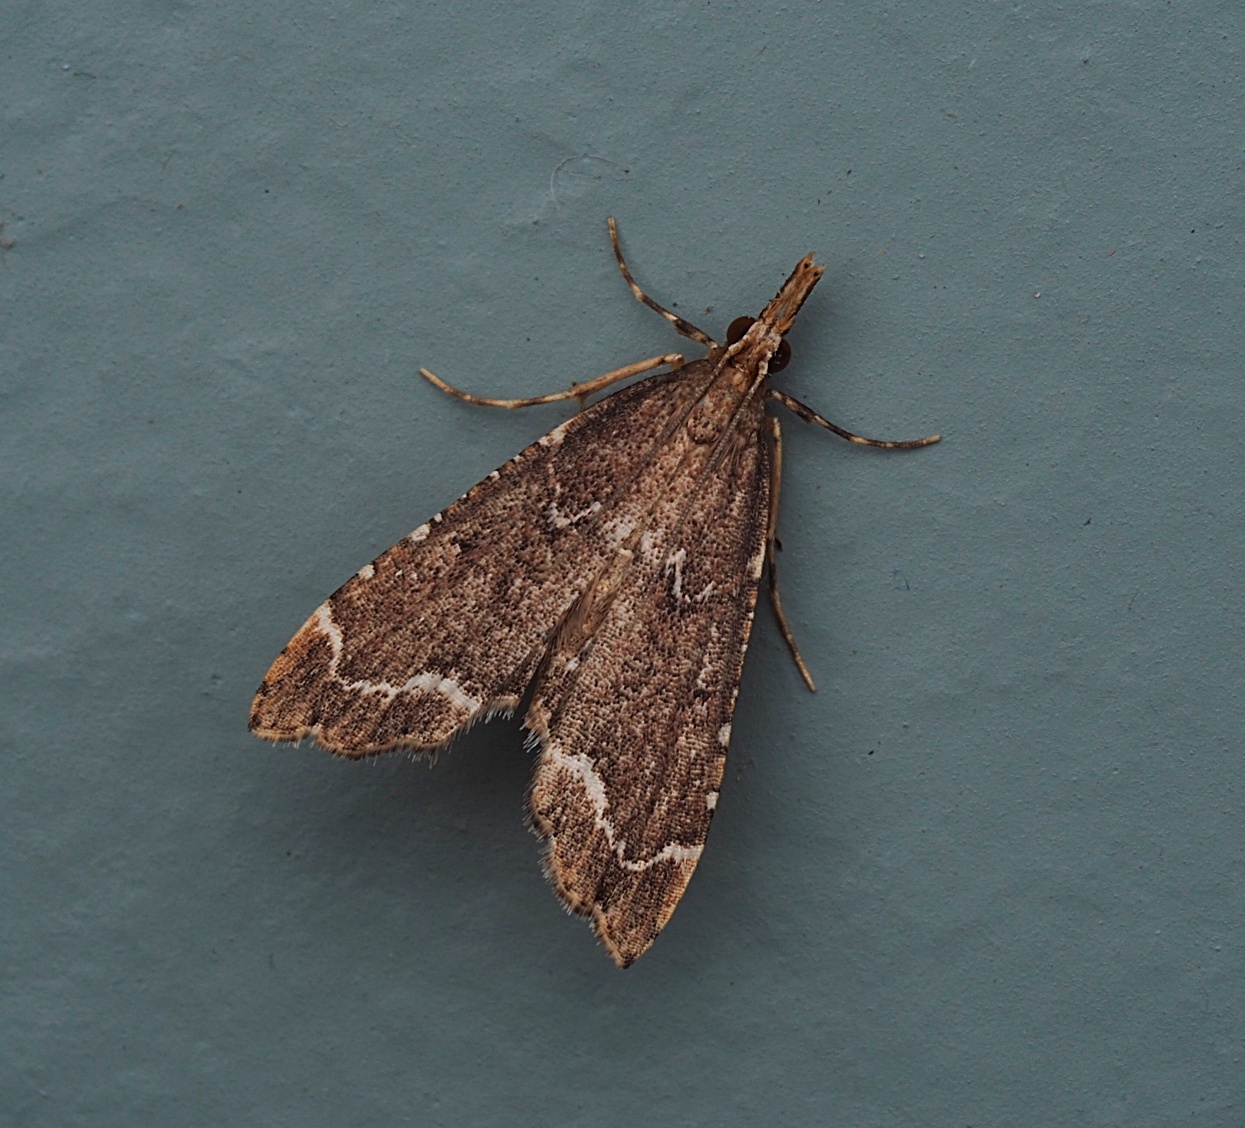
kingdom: Animalia
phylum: Arthropoda
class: Insecta
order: Lepidoptera
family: Crambidae
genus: Diplopseustis
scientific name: Diplopseustis perieresalis
